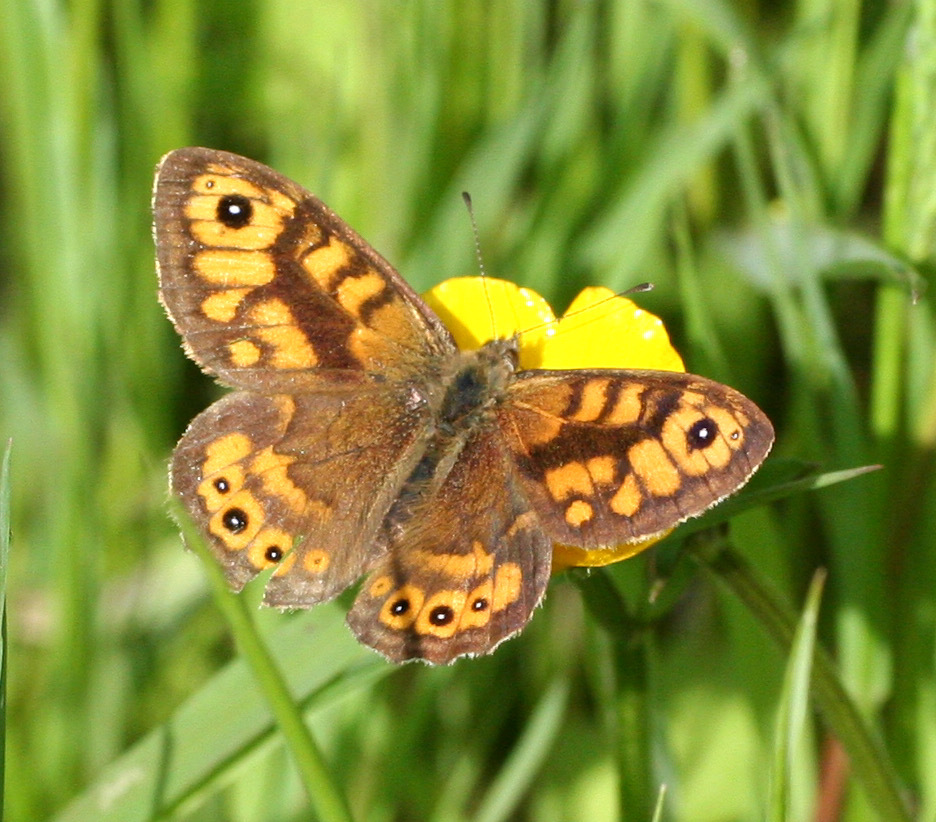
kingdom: Animalia
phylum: Arthropoda
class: Insecta
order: Lepidoptera
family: Nymphalidae
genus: Pararge
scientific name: Pararge Lasiommata megera
